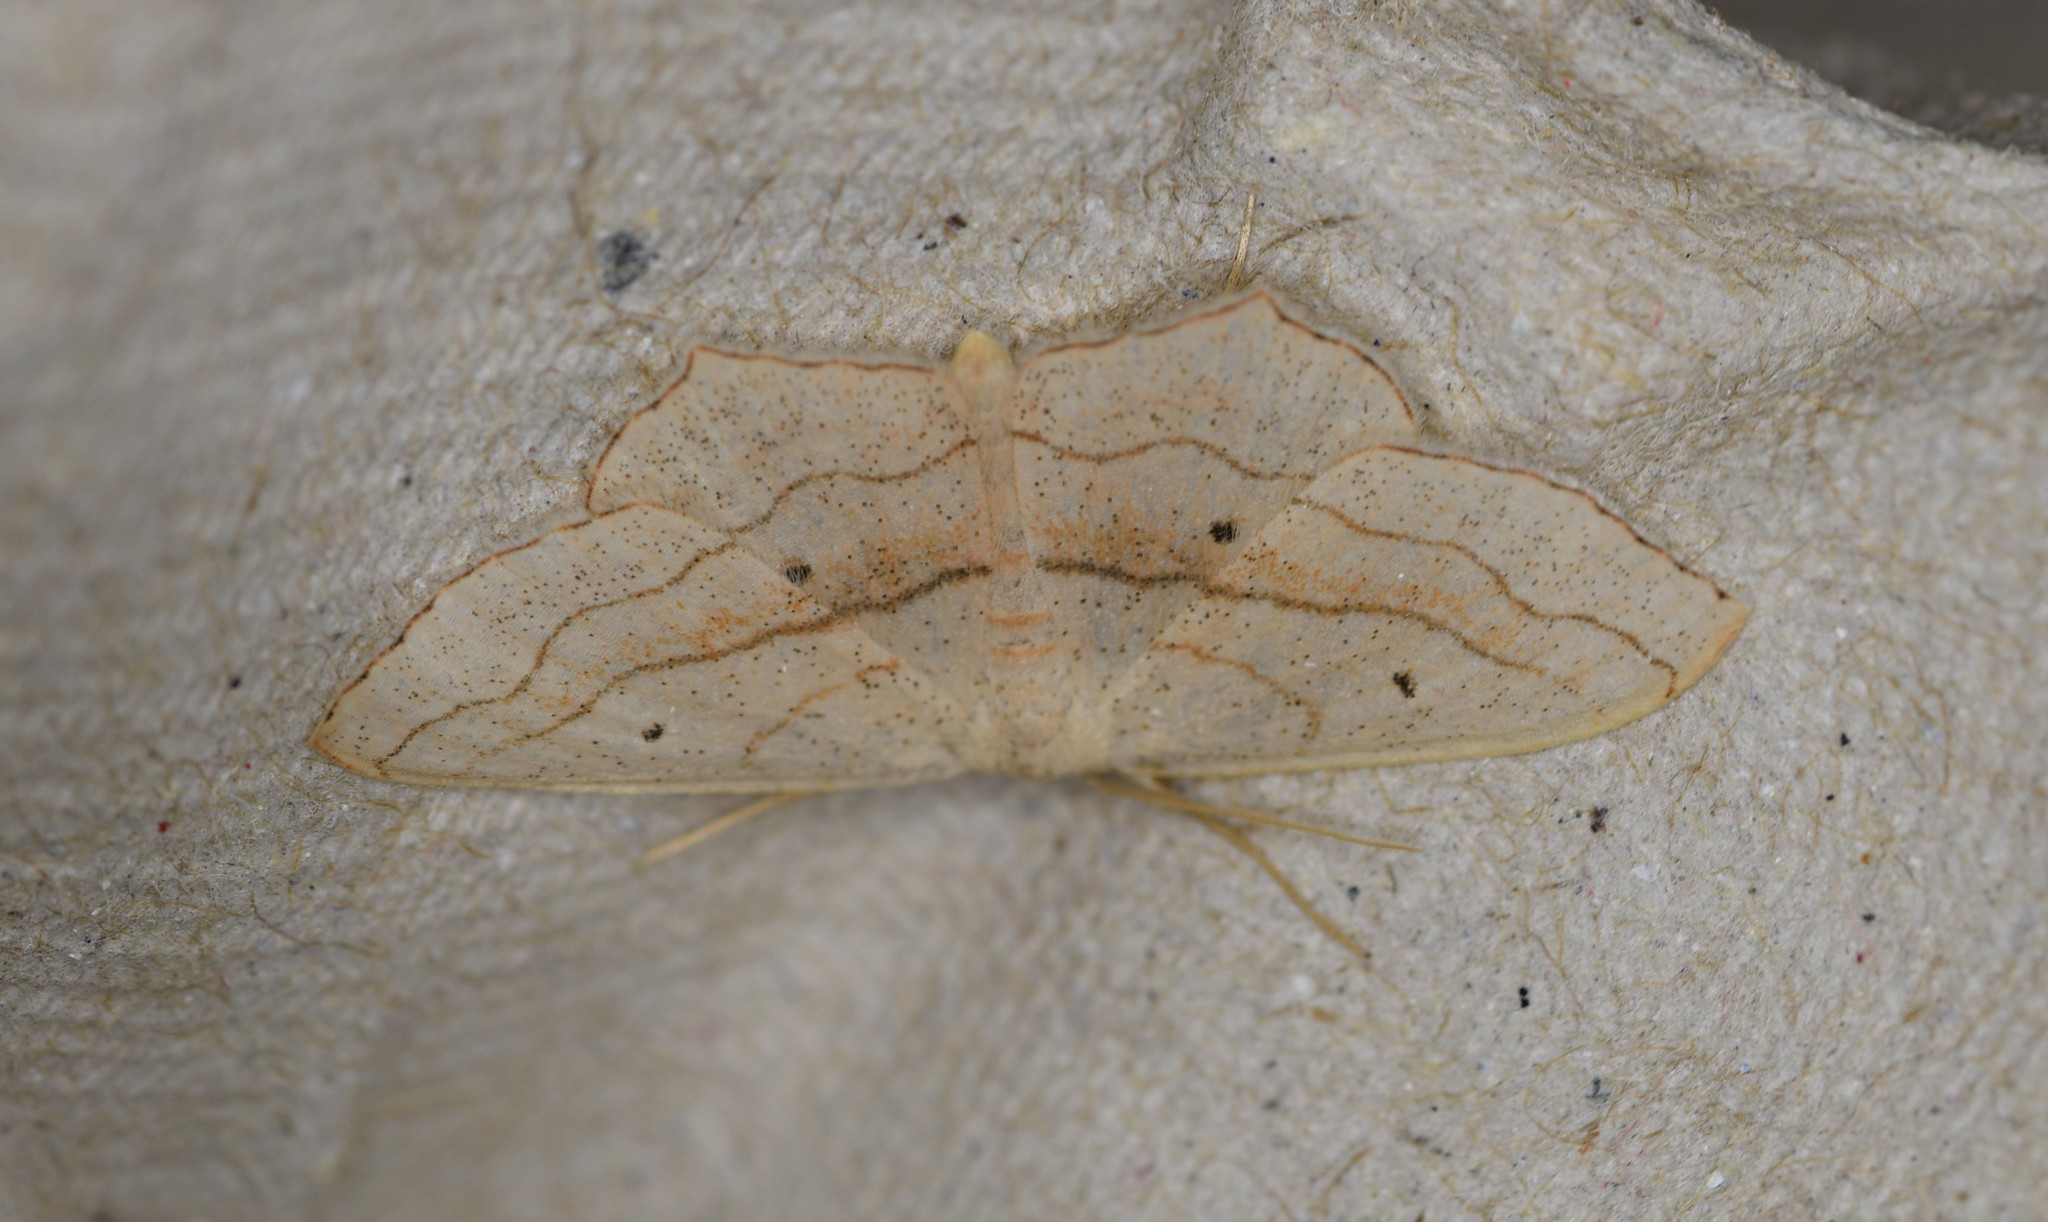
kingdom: Animalia
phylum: Arthropoda
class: Insecta
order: Lepidoptera
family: Geometridae
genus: Scopula
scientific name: Scopula imitaria
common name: Small blood-vein
